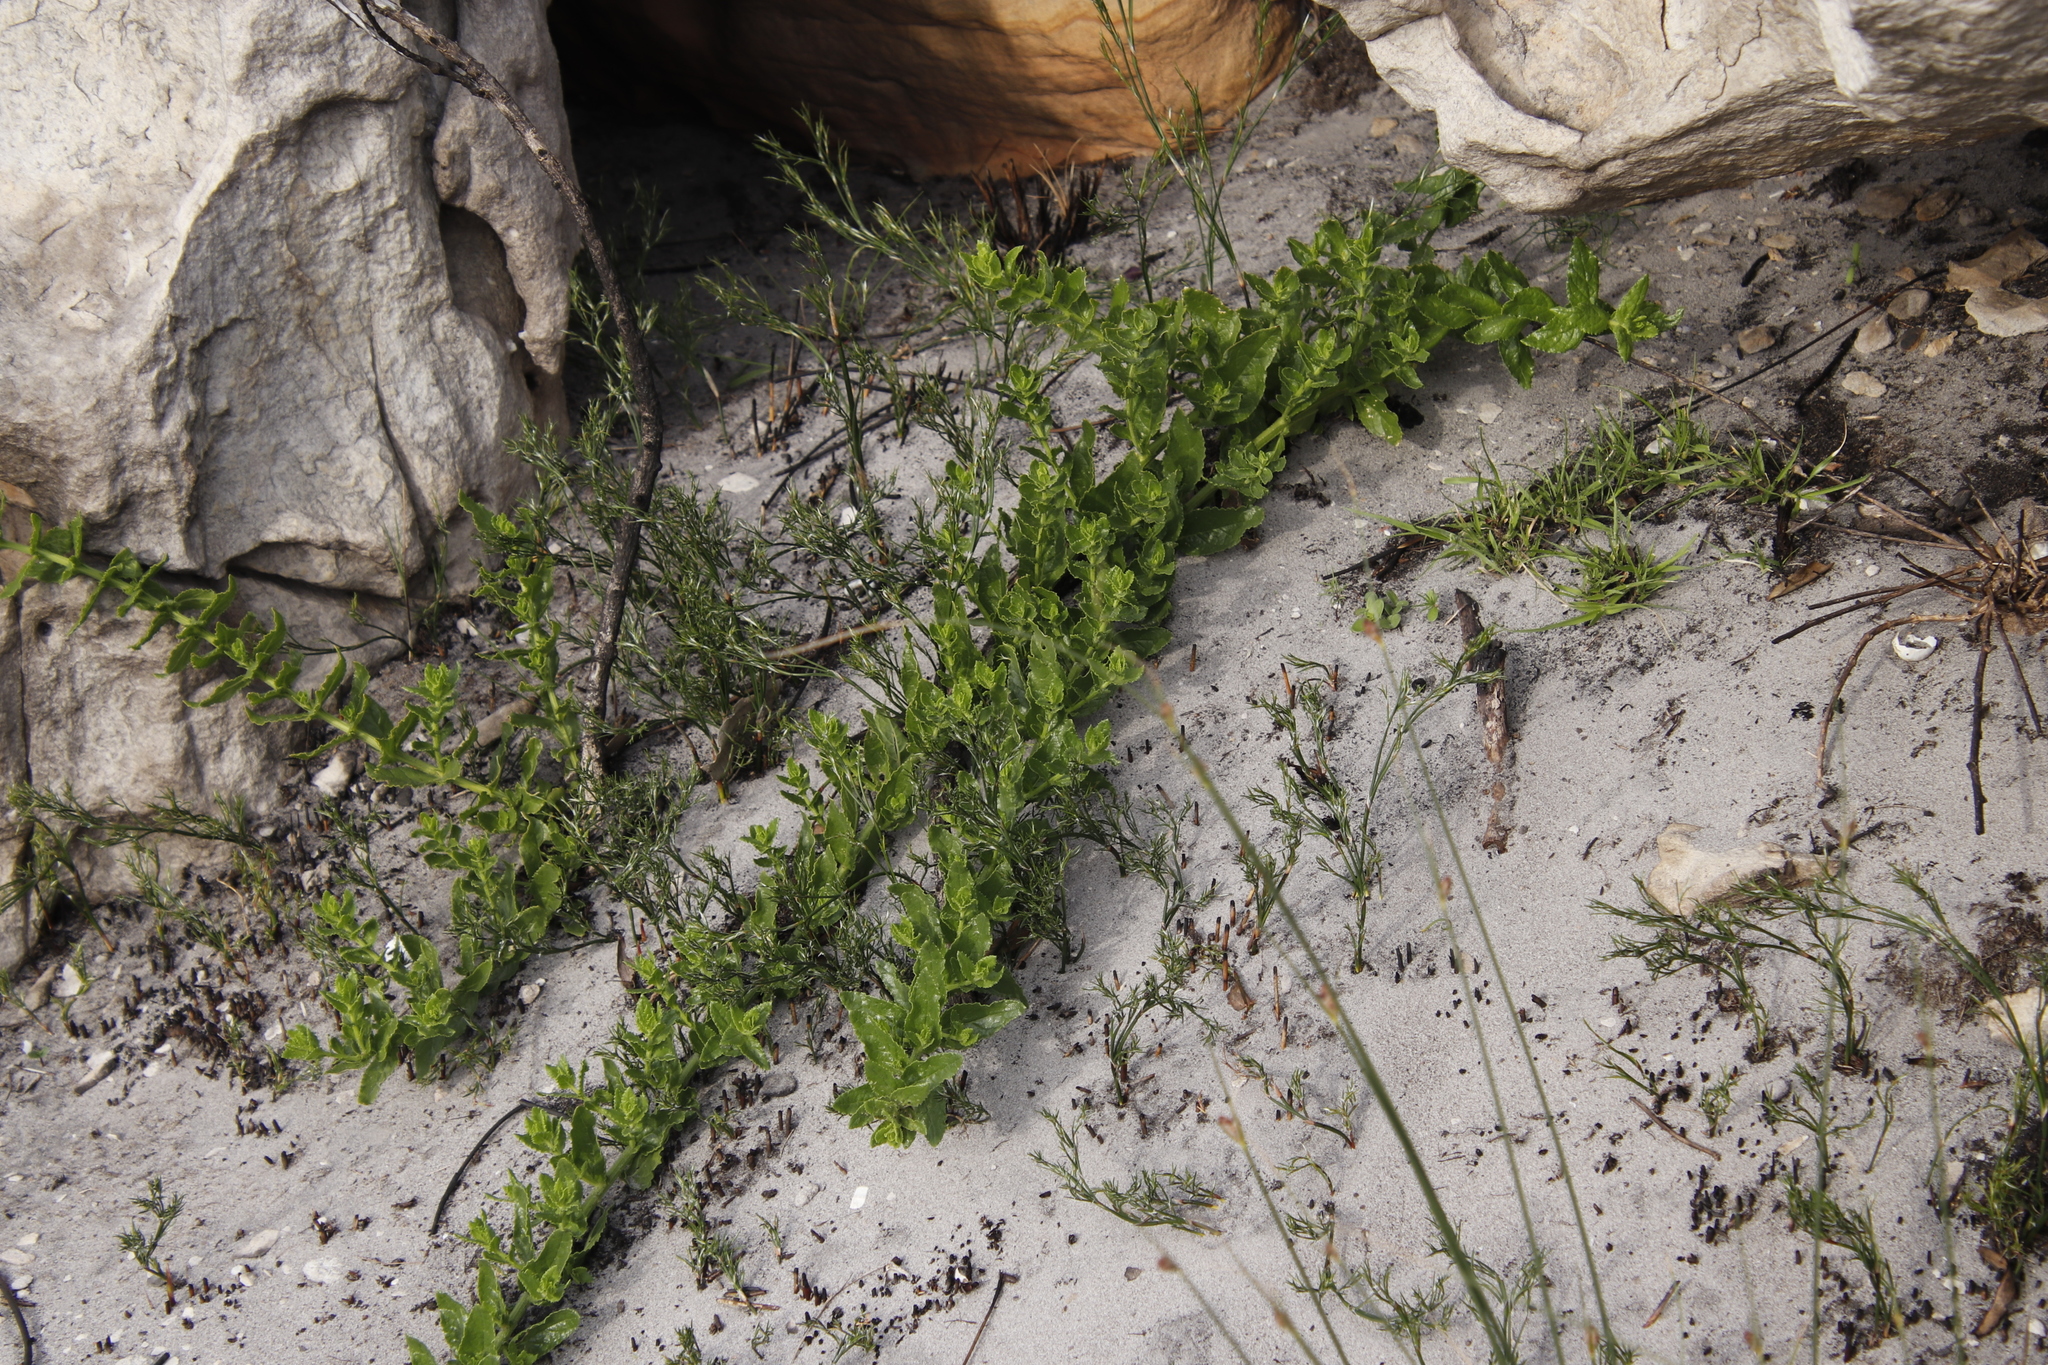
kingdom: Plantae
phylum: Tracheophyta
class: Magnoliopsida
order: Lamiales
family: Scrophulariaceae
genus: Oftia
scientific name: Oftia africana
